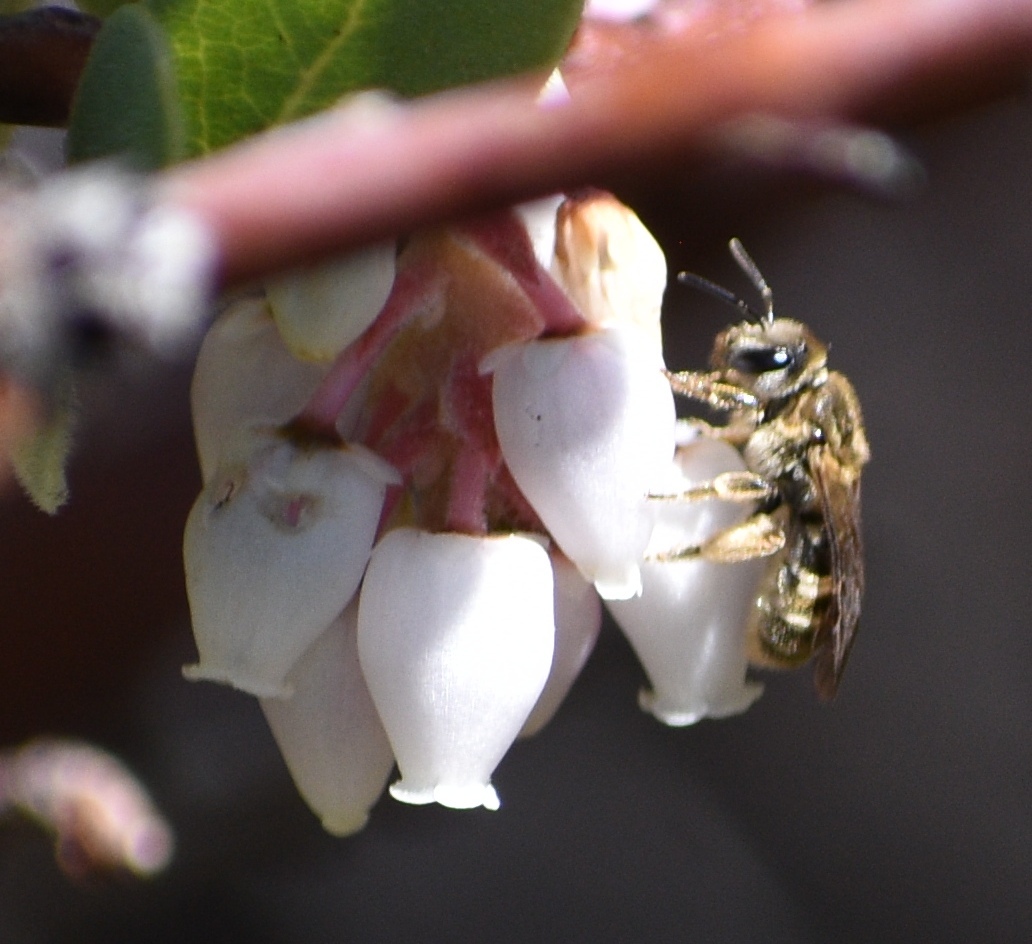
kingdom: Animalia
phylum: Arthropoda
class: Insecta
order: Hymenoptera
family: Andrenidae
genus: Andrena
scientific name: Andrena
